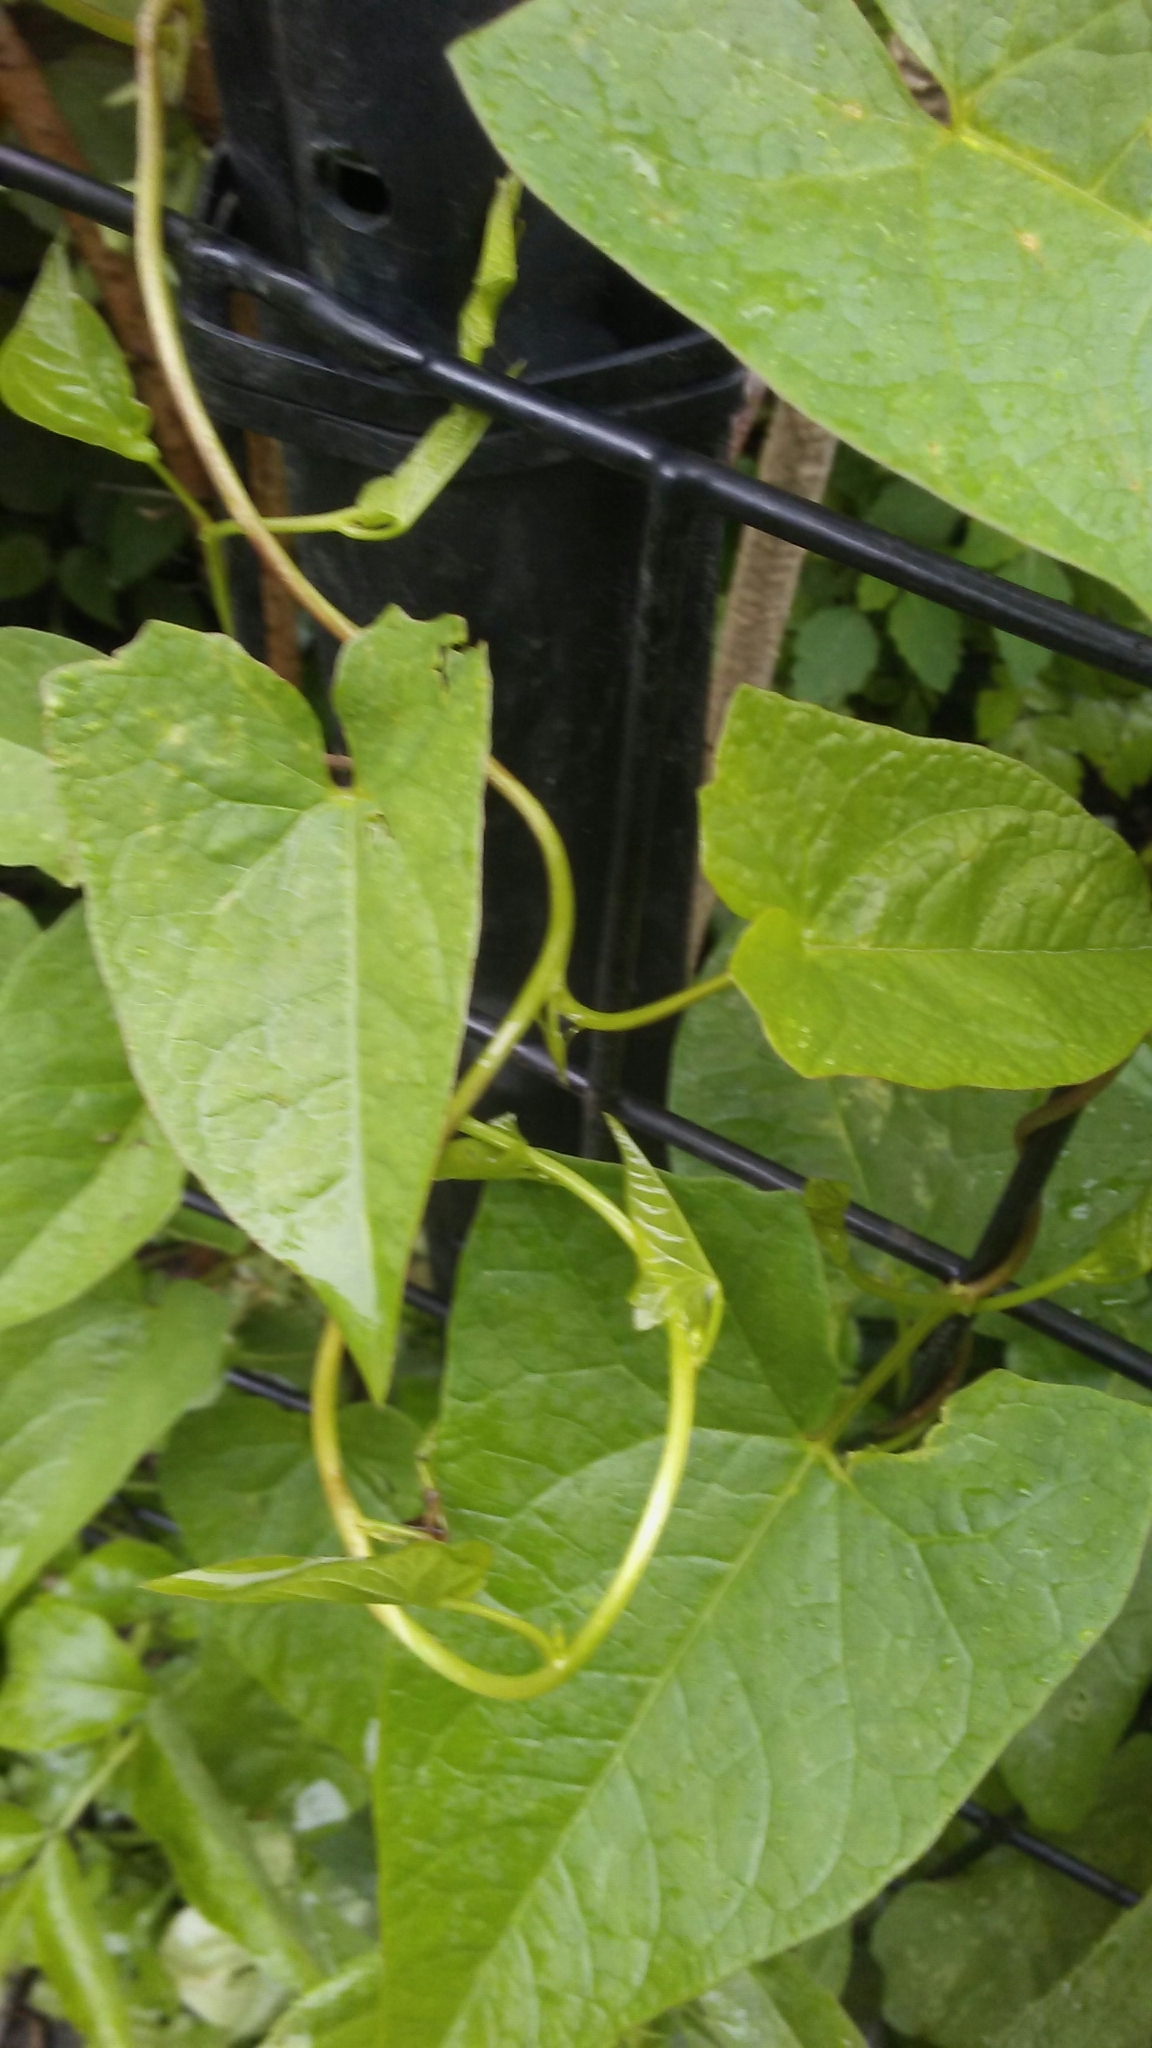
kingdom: Plantae
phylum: Tracheophyta
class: Magnoliopsida
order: Solanales
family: Convolvulaceae
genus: Calystegia
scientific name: Calystegia sepium
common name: Hedge bindweed
